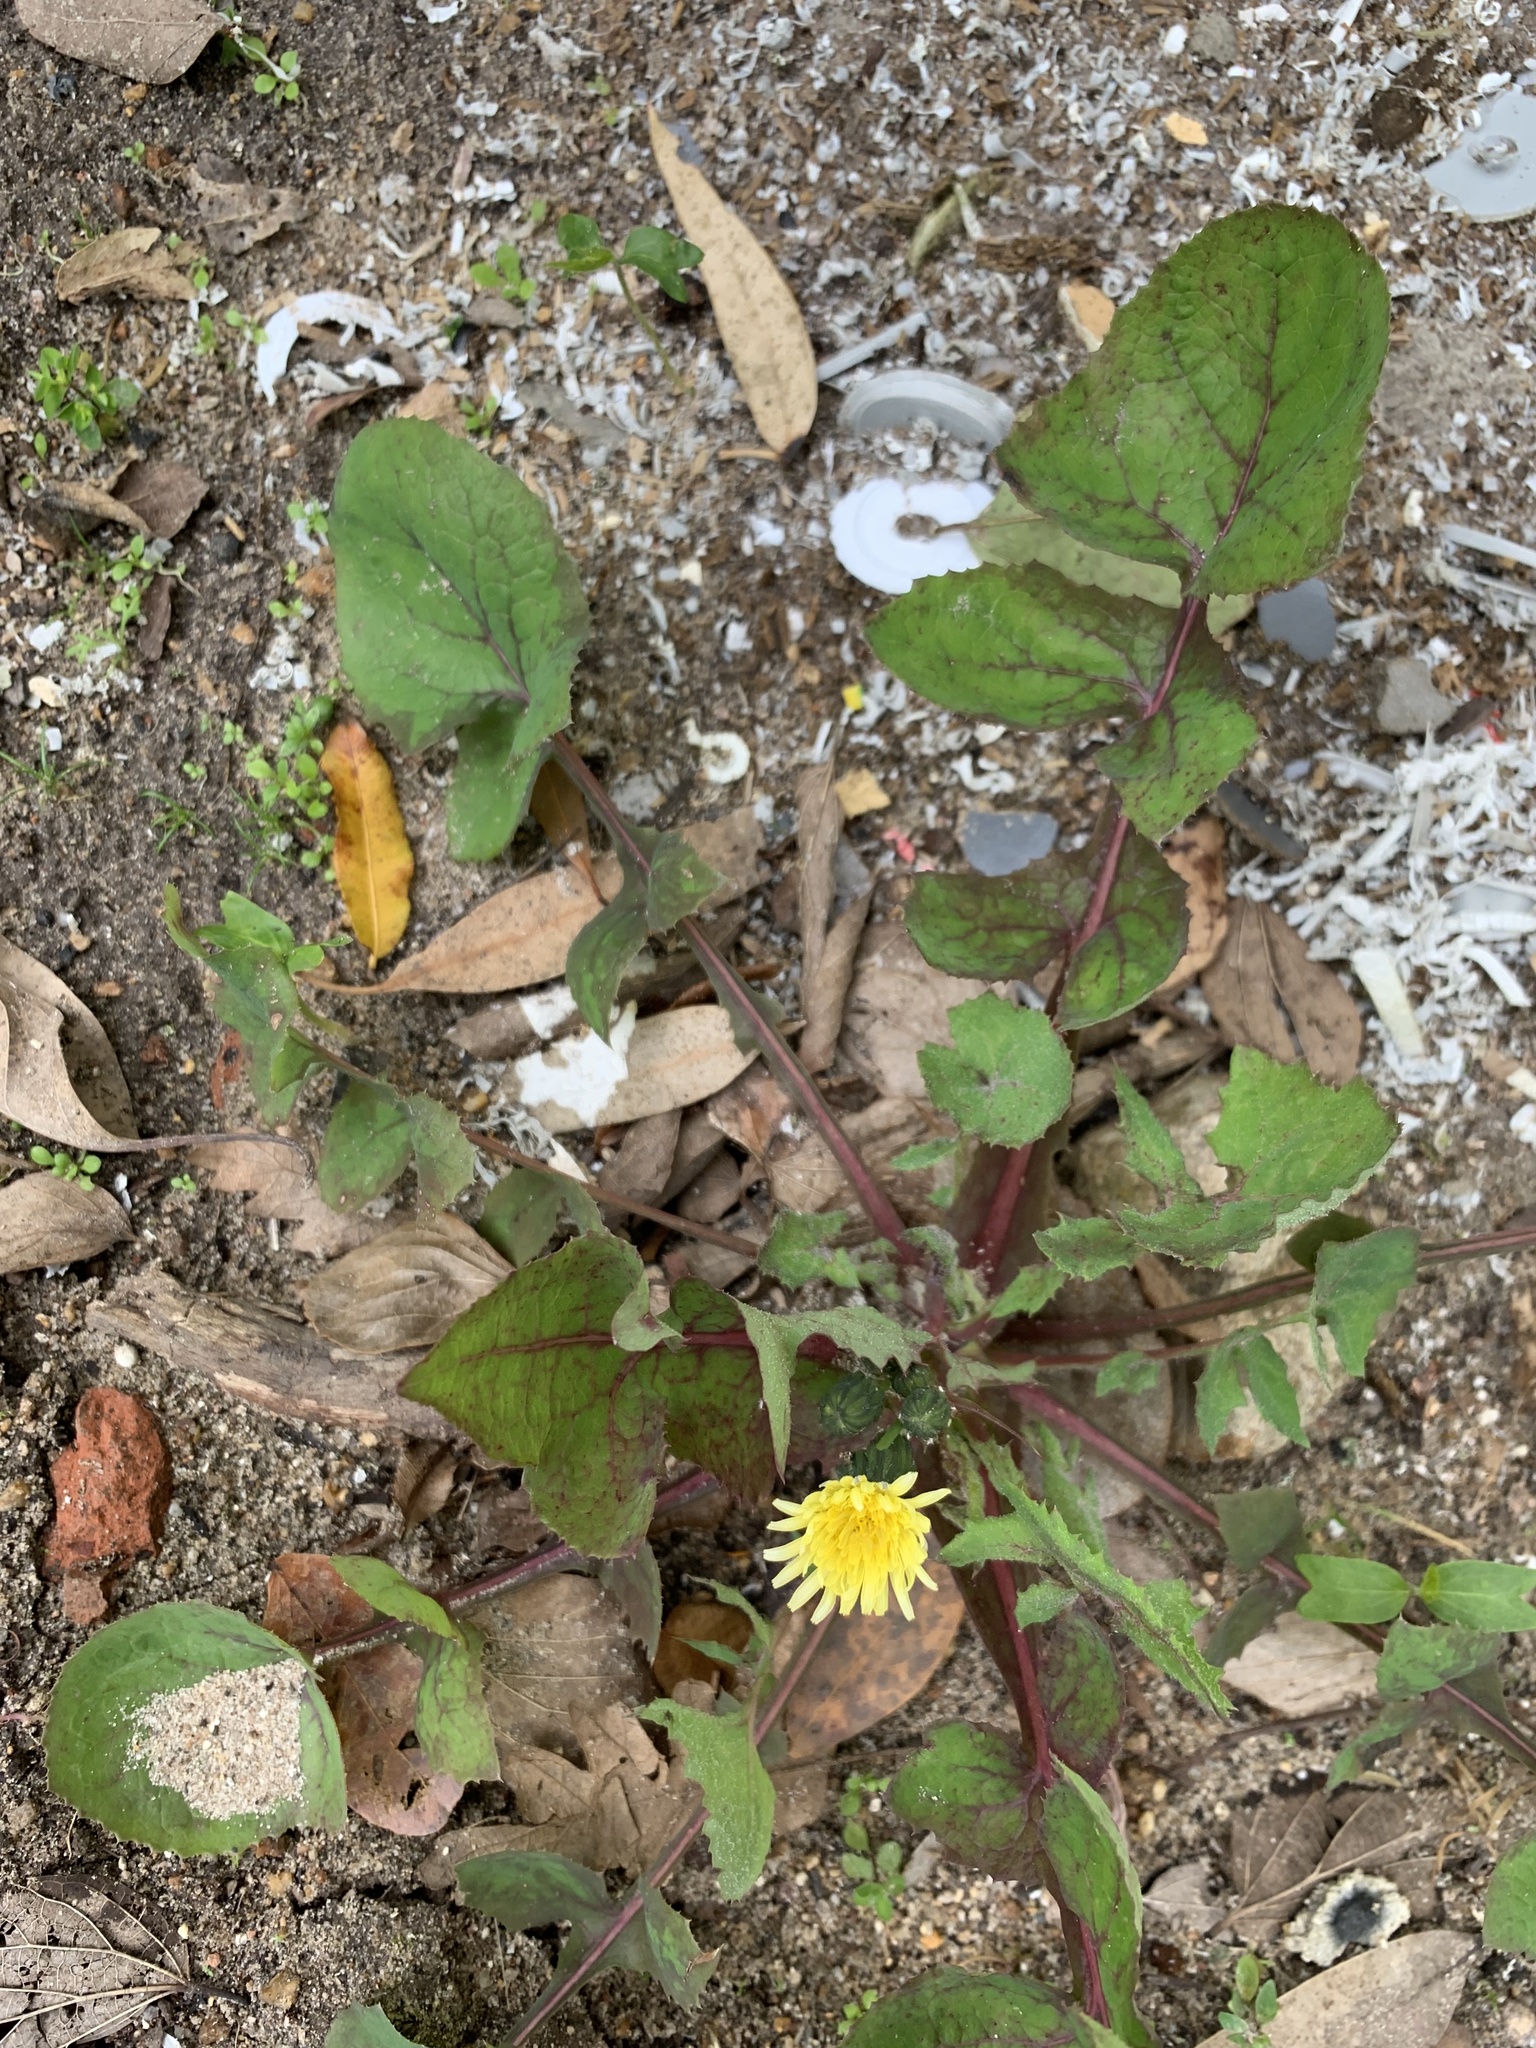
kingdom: Plantae
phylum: Tracheophyta
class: Magnoliopsida
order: Asterales
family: Asteraceae
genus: Sonchus
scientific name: Sonchus oleraceus
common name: Common sowthistle
